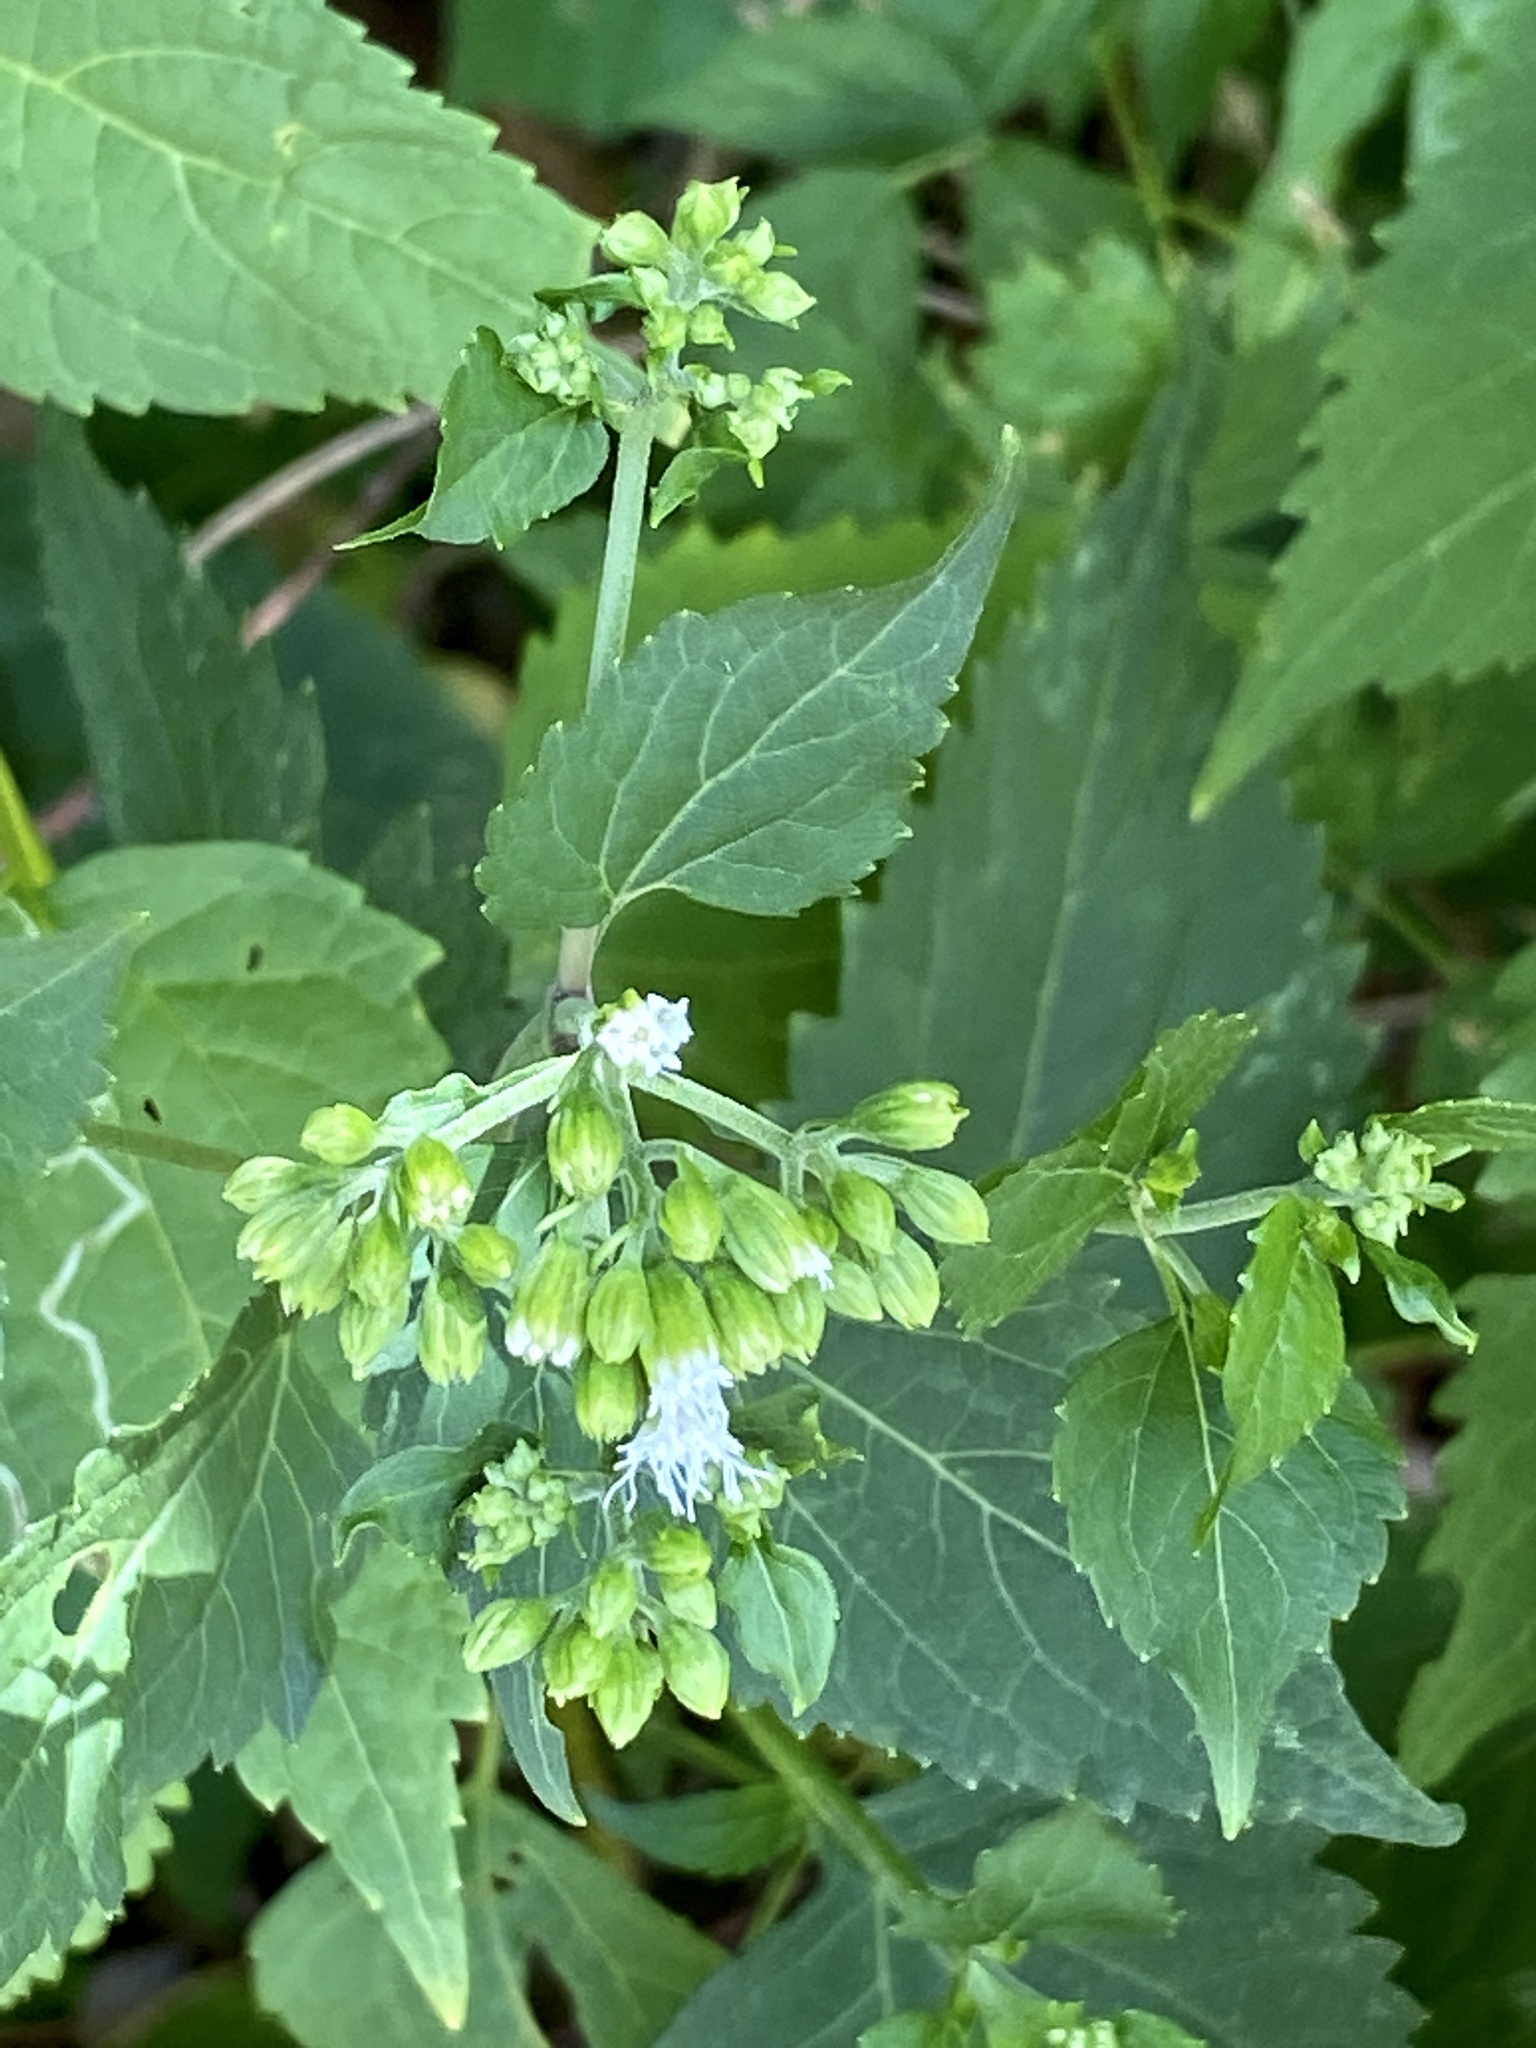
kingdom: Plantae
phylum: Tracheophyta
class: Magnoliopsida
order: Asterales
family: Asteraceae
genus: Ageratina
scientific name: Ageratina altissima
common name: White snakeroot
